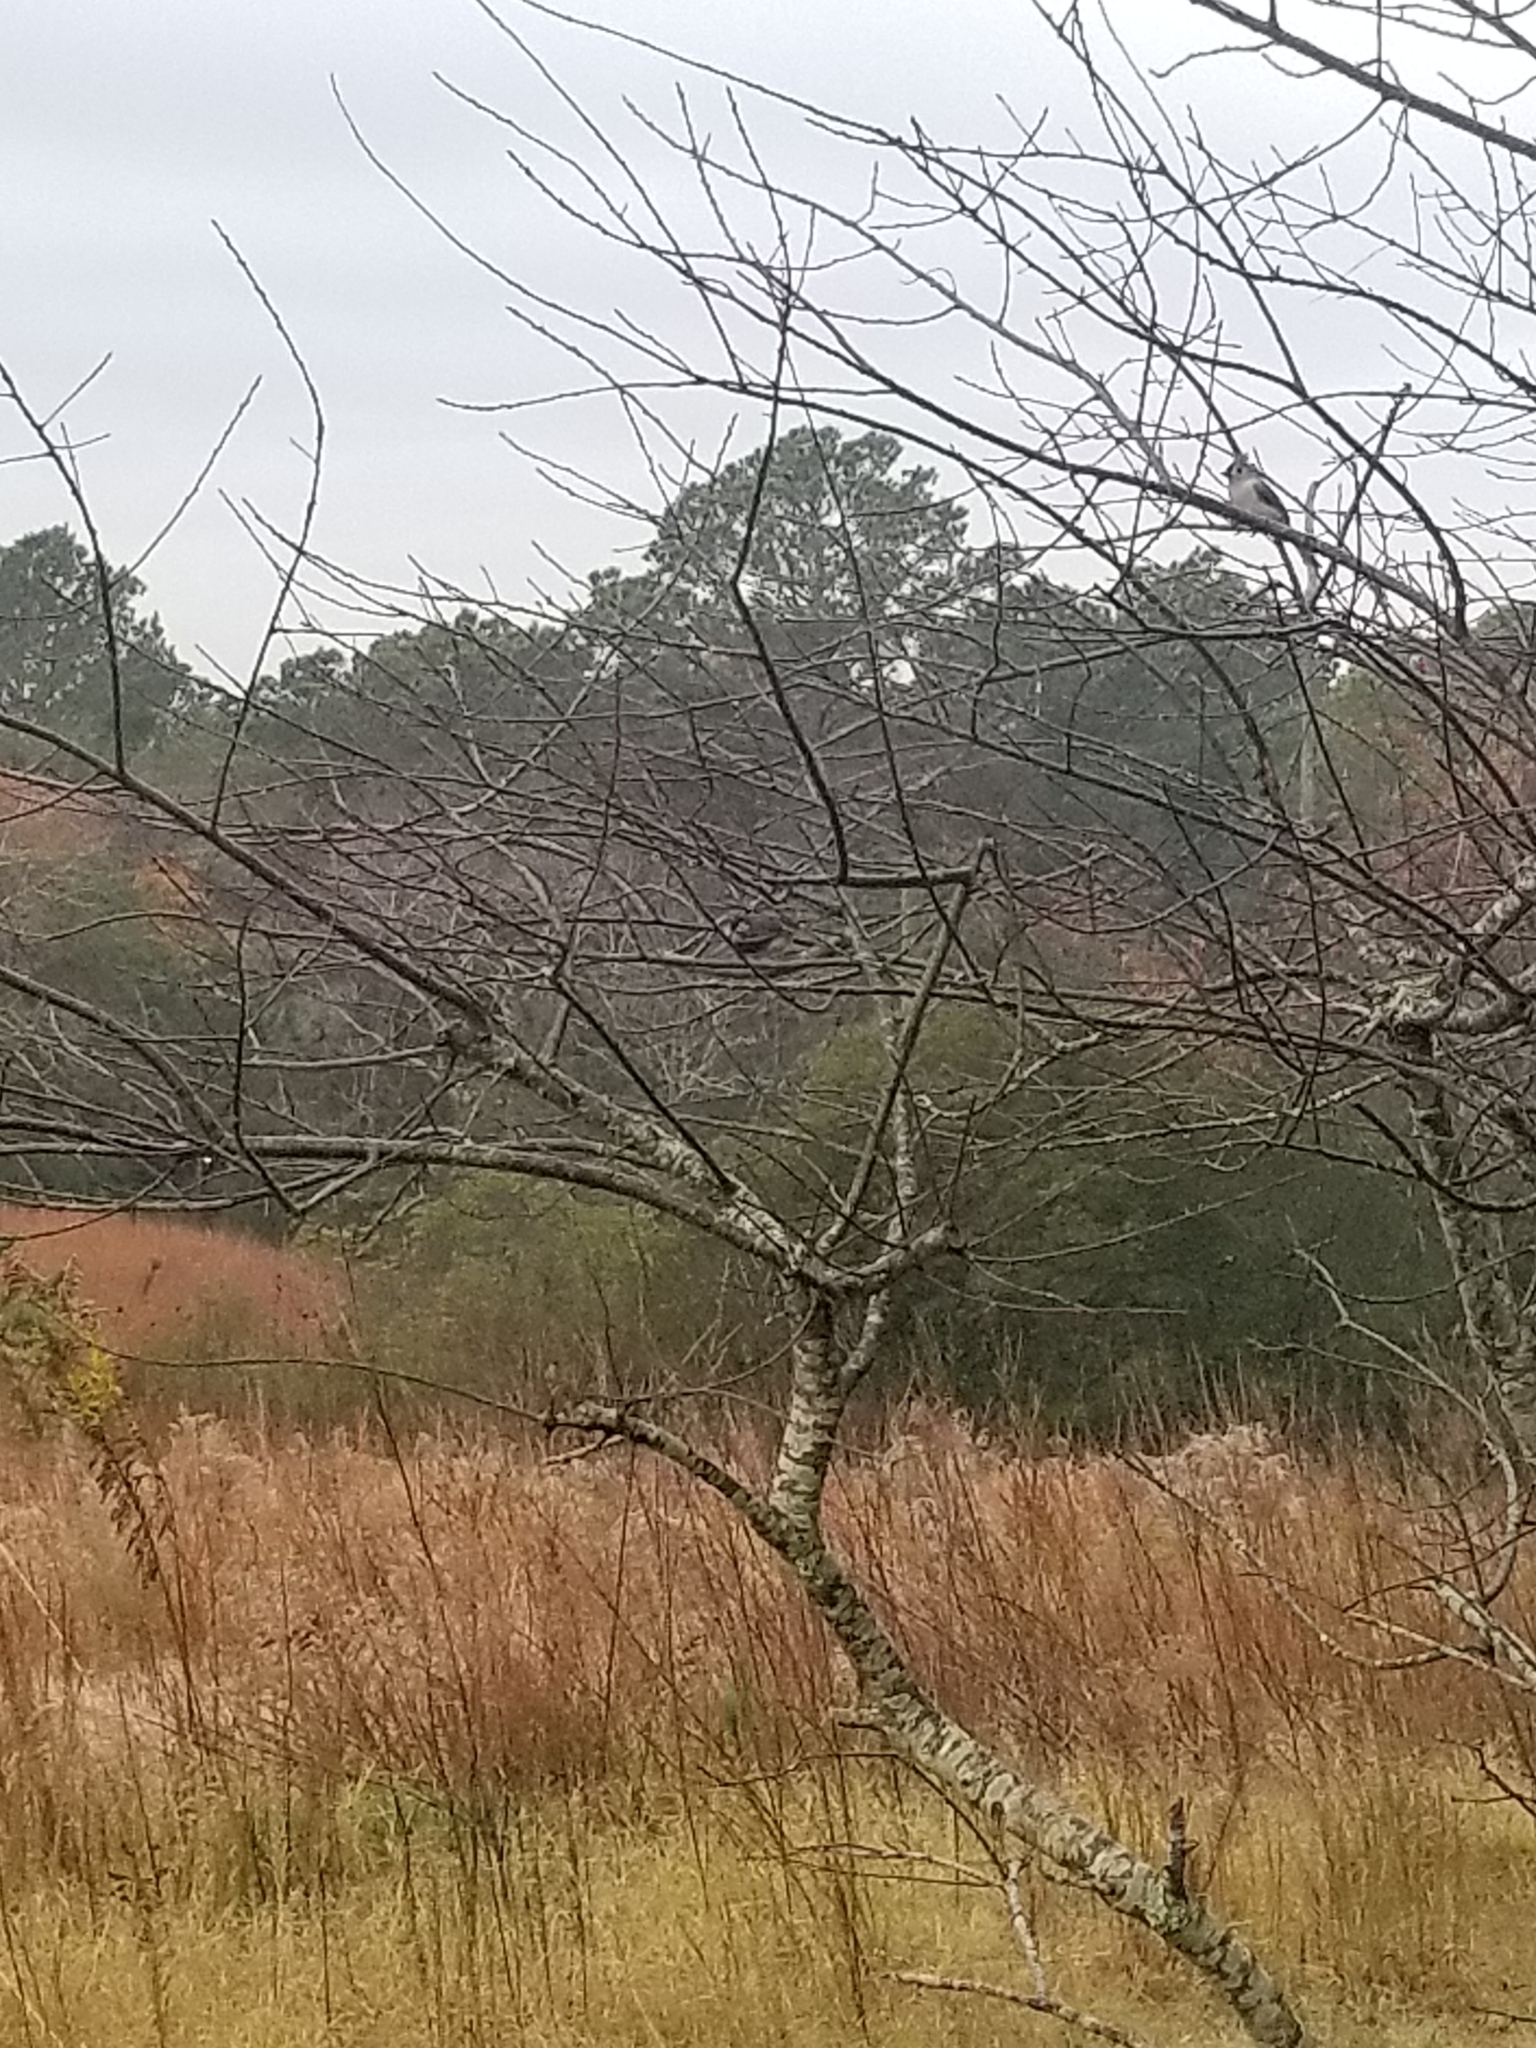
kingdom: Animalia
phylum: Chordata
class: Aves
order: Passeriformes
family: Paridae
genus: Baeolophus
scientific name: Baeolophus bicolor
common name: Tufted titmouse
